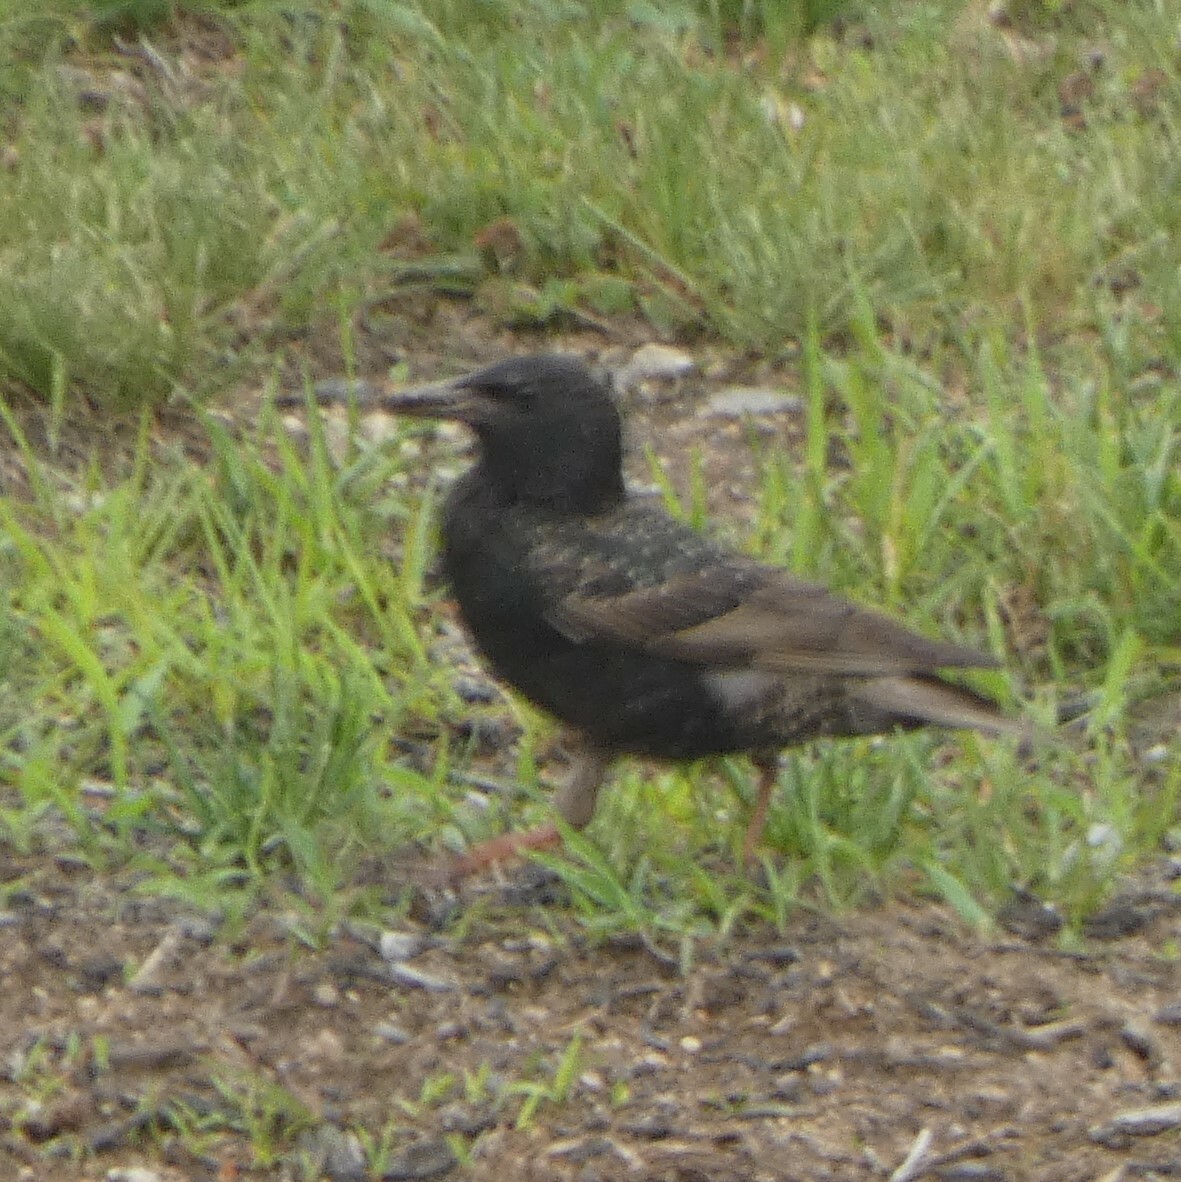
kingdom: Animalia
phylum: Chordata
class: Aves
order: Passeriformes
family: Sturnidae
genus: Sturnus
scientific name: Sturnus vulgaris
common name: Common starling
